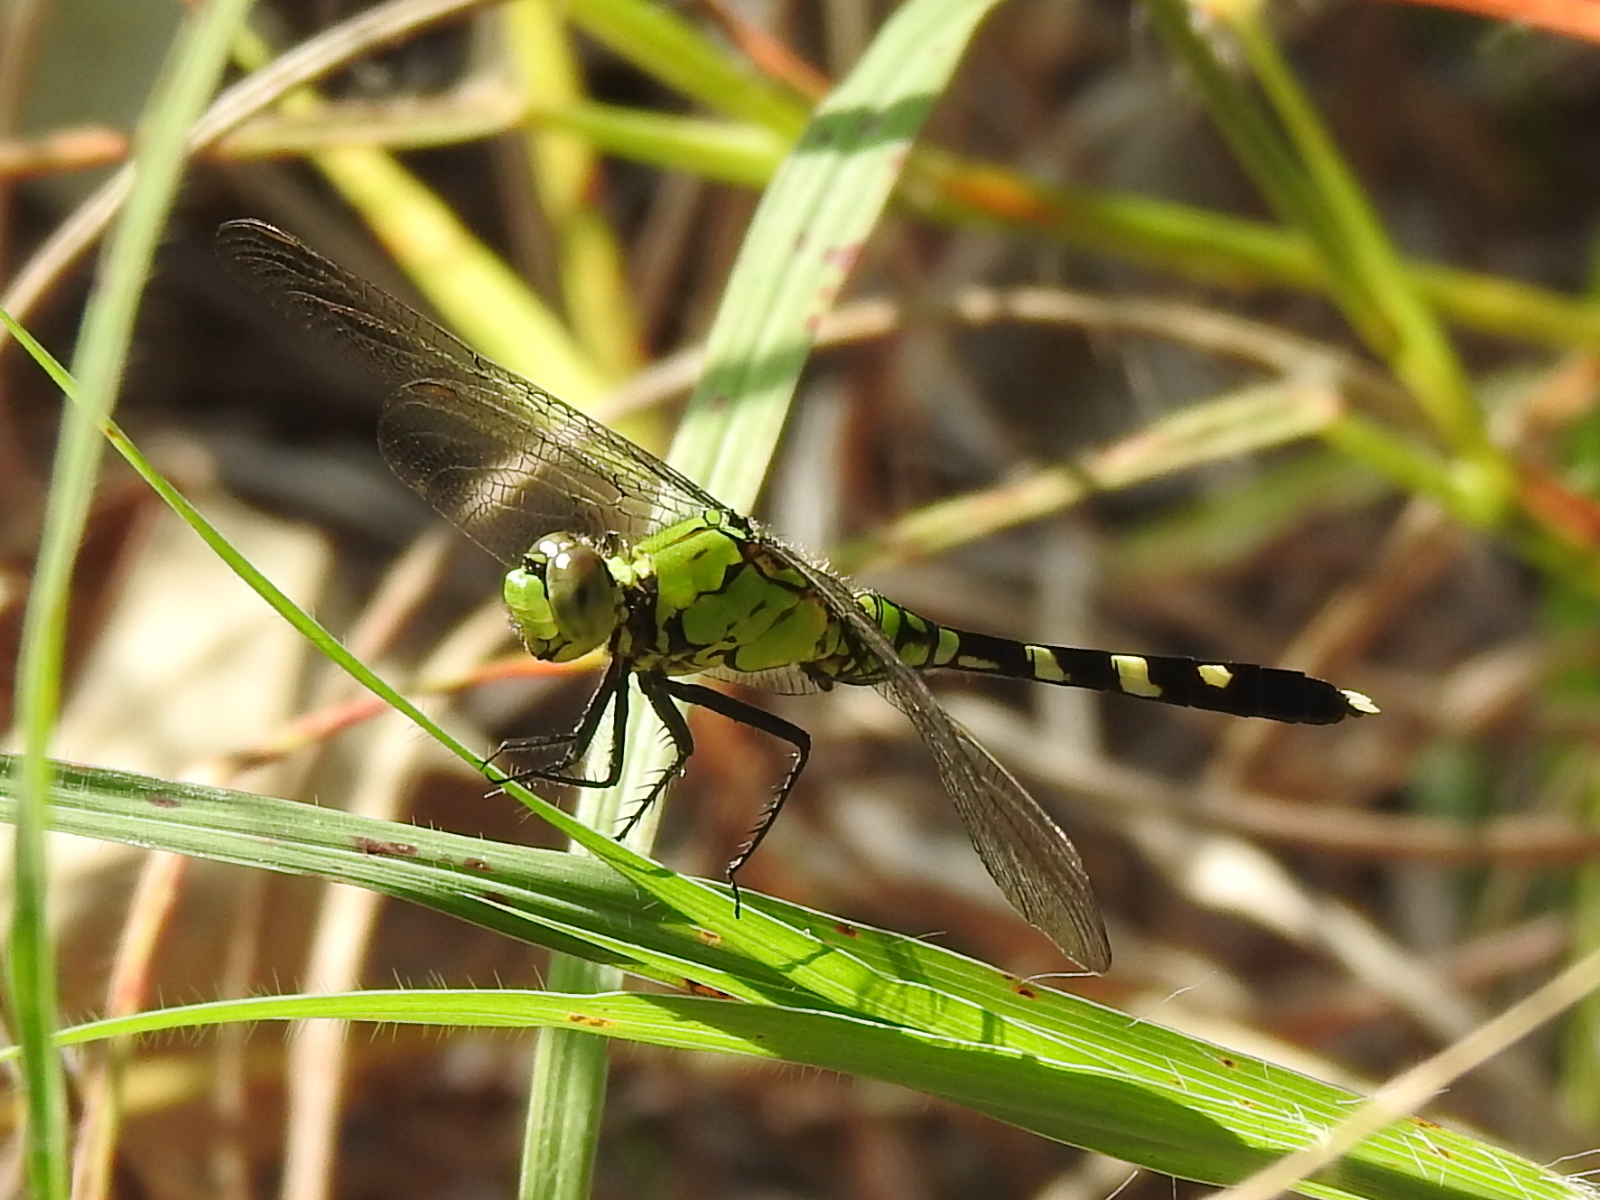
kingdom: Animalia
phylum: Arthropoda
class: Insecta
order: Odonata
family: Libellulidae
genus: Erythemis
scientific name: Erythemis simplicicollis
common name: Eastern pondhawk
